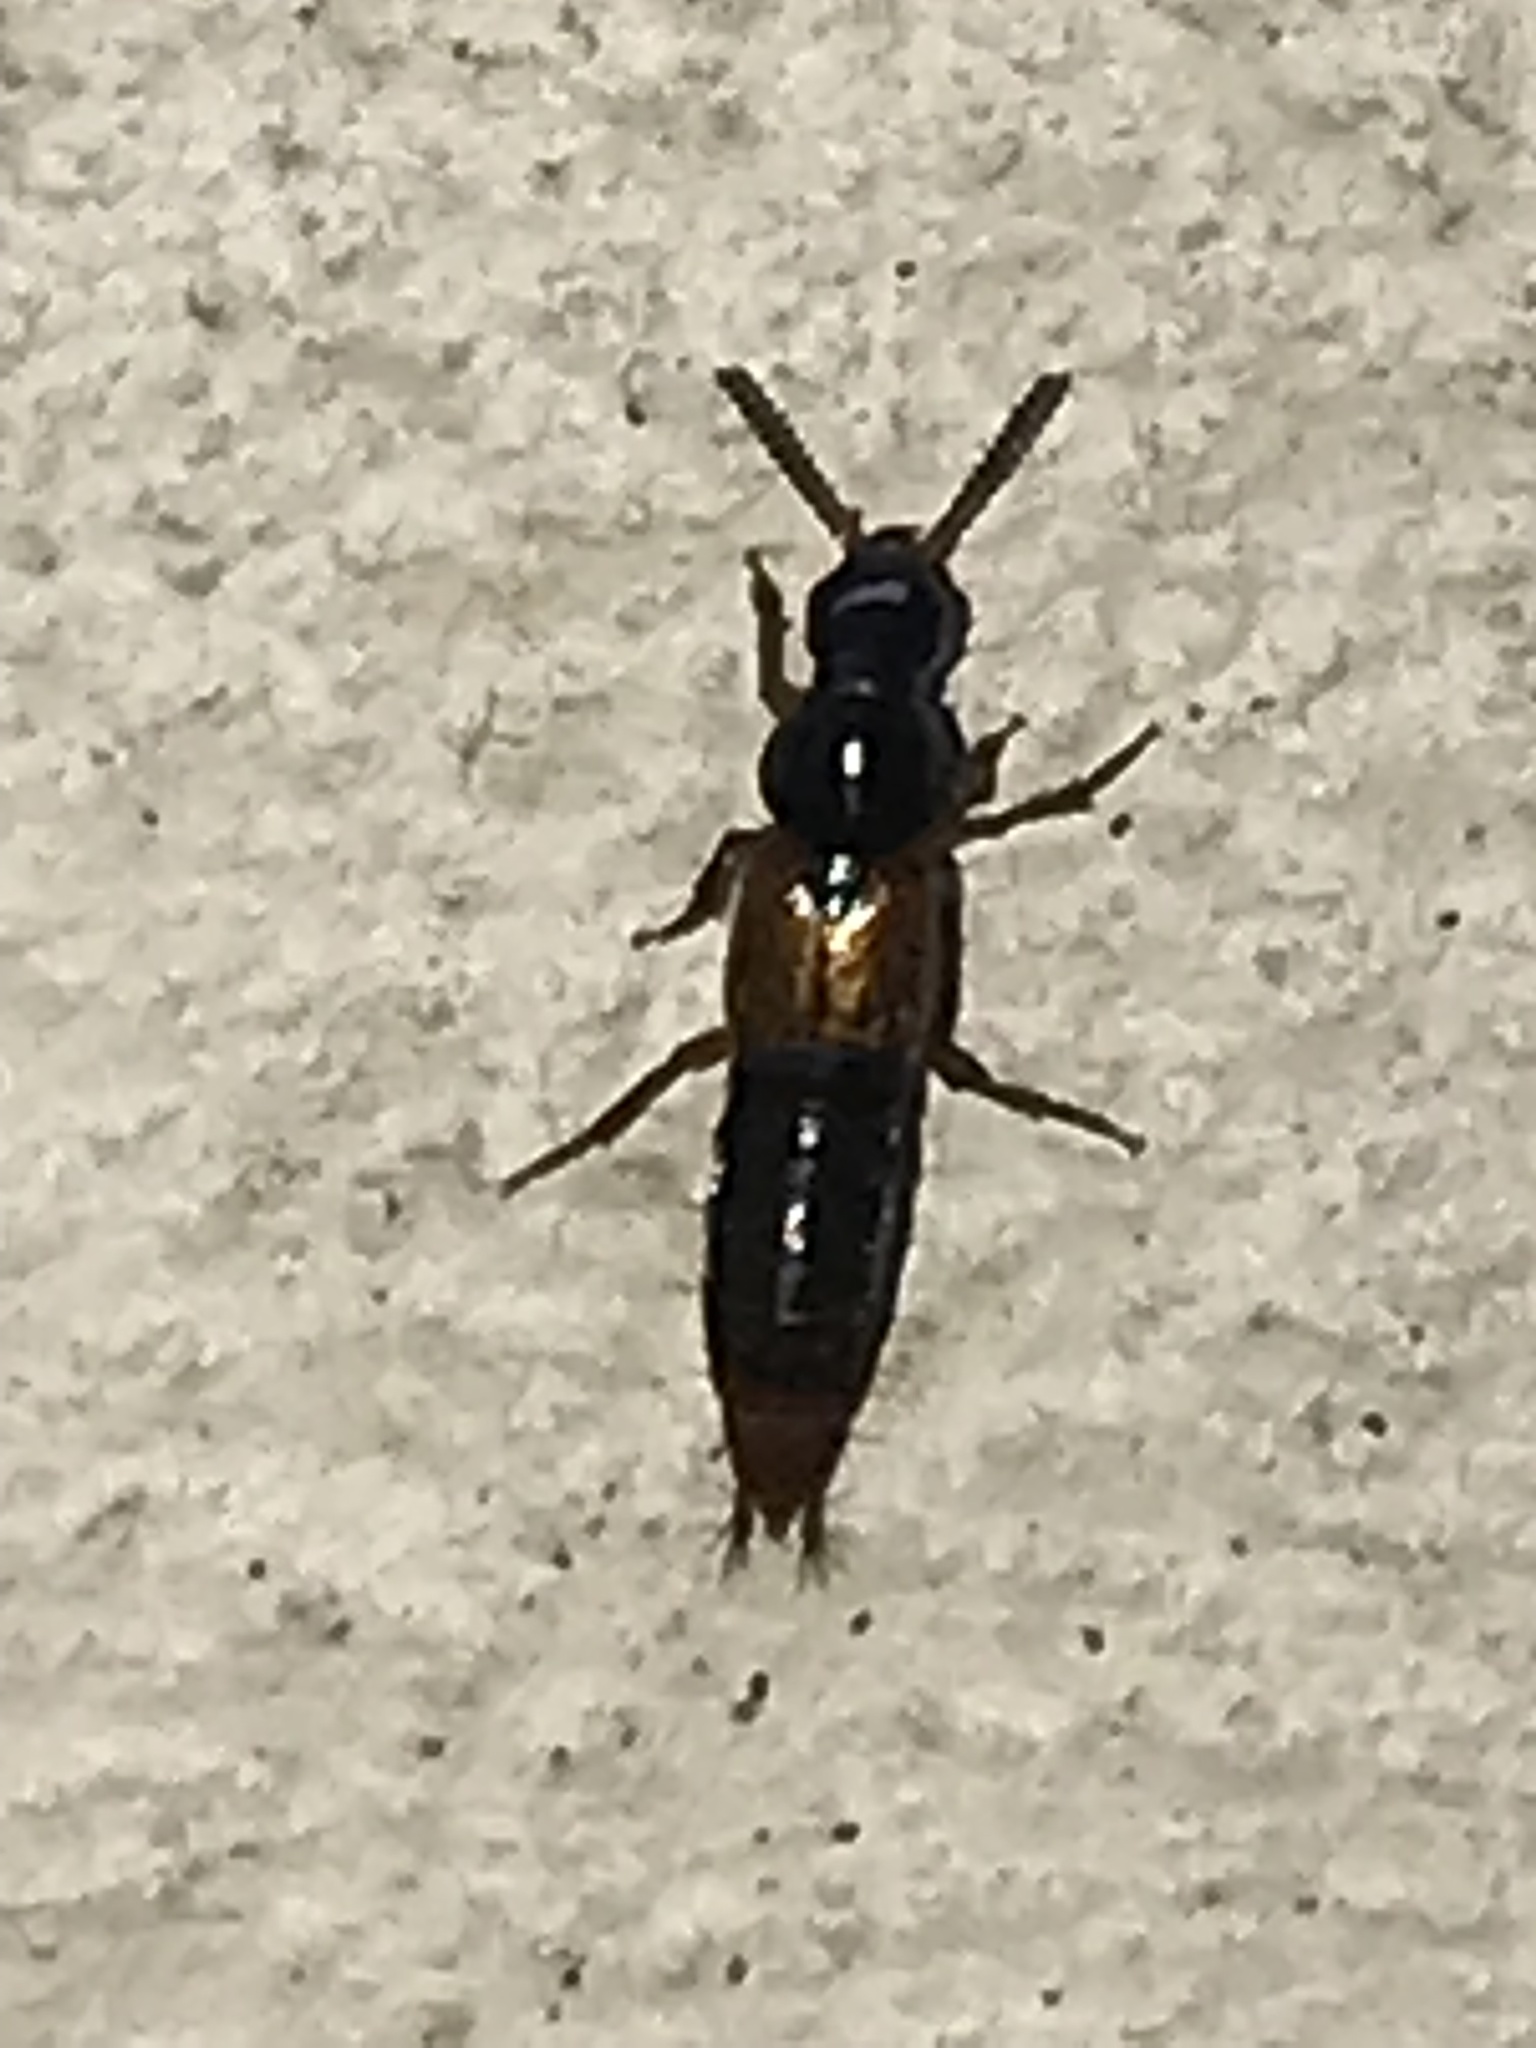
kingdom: Animalia
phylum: Arthropoda
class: Insecta
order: Coleoptera
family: Staphylinidae
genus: Quedius
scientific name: Quedius cruentus
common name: Rove beetle
